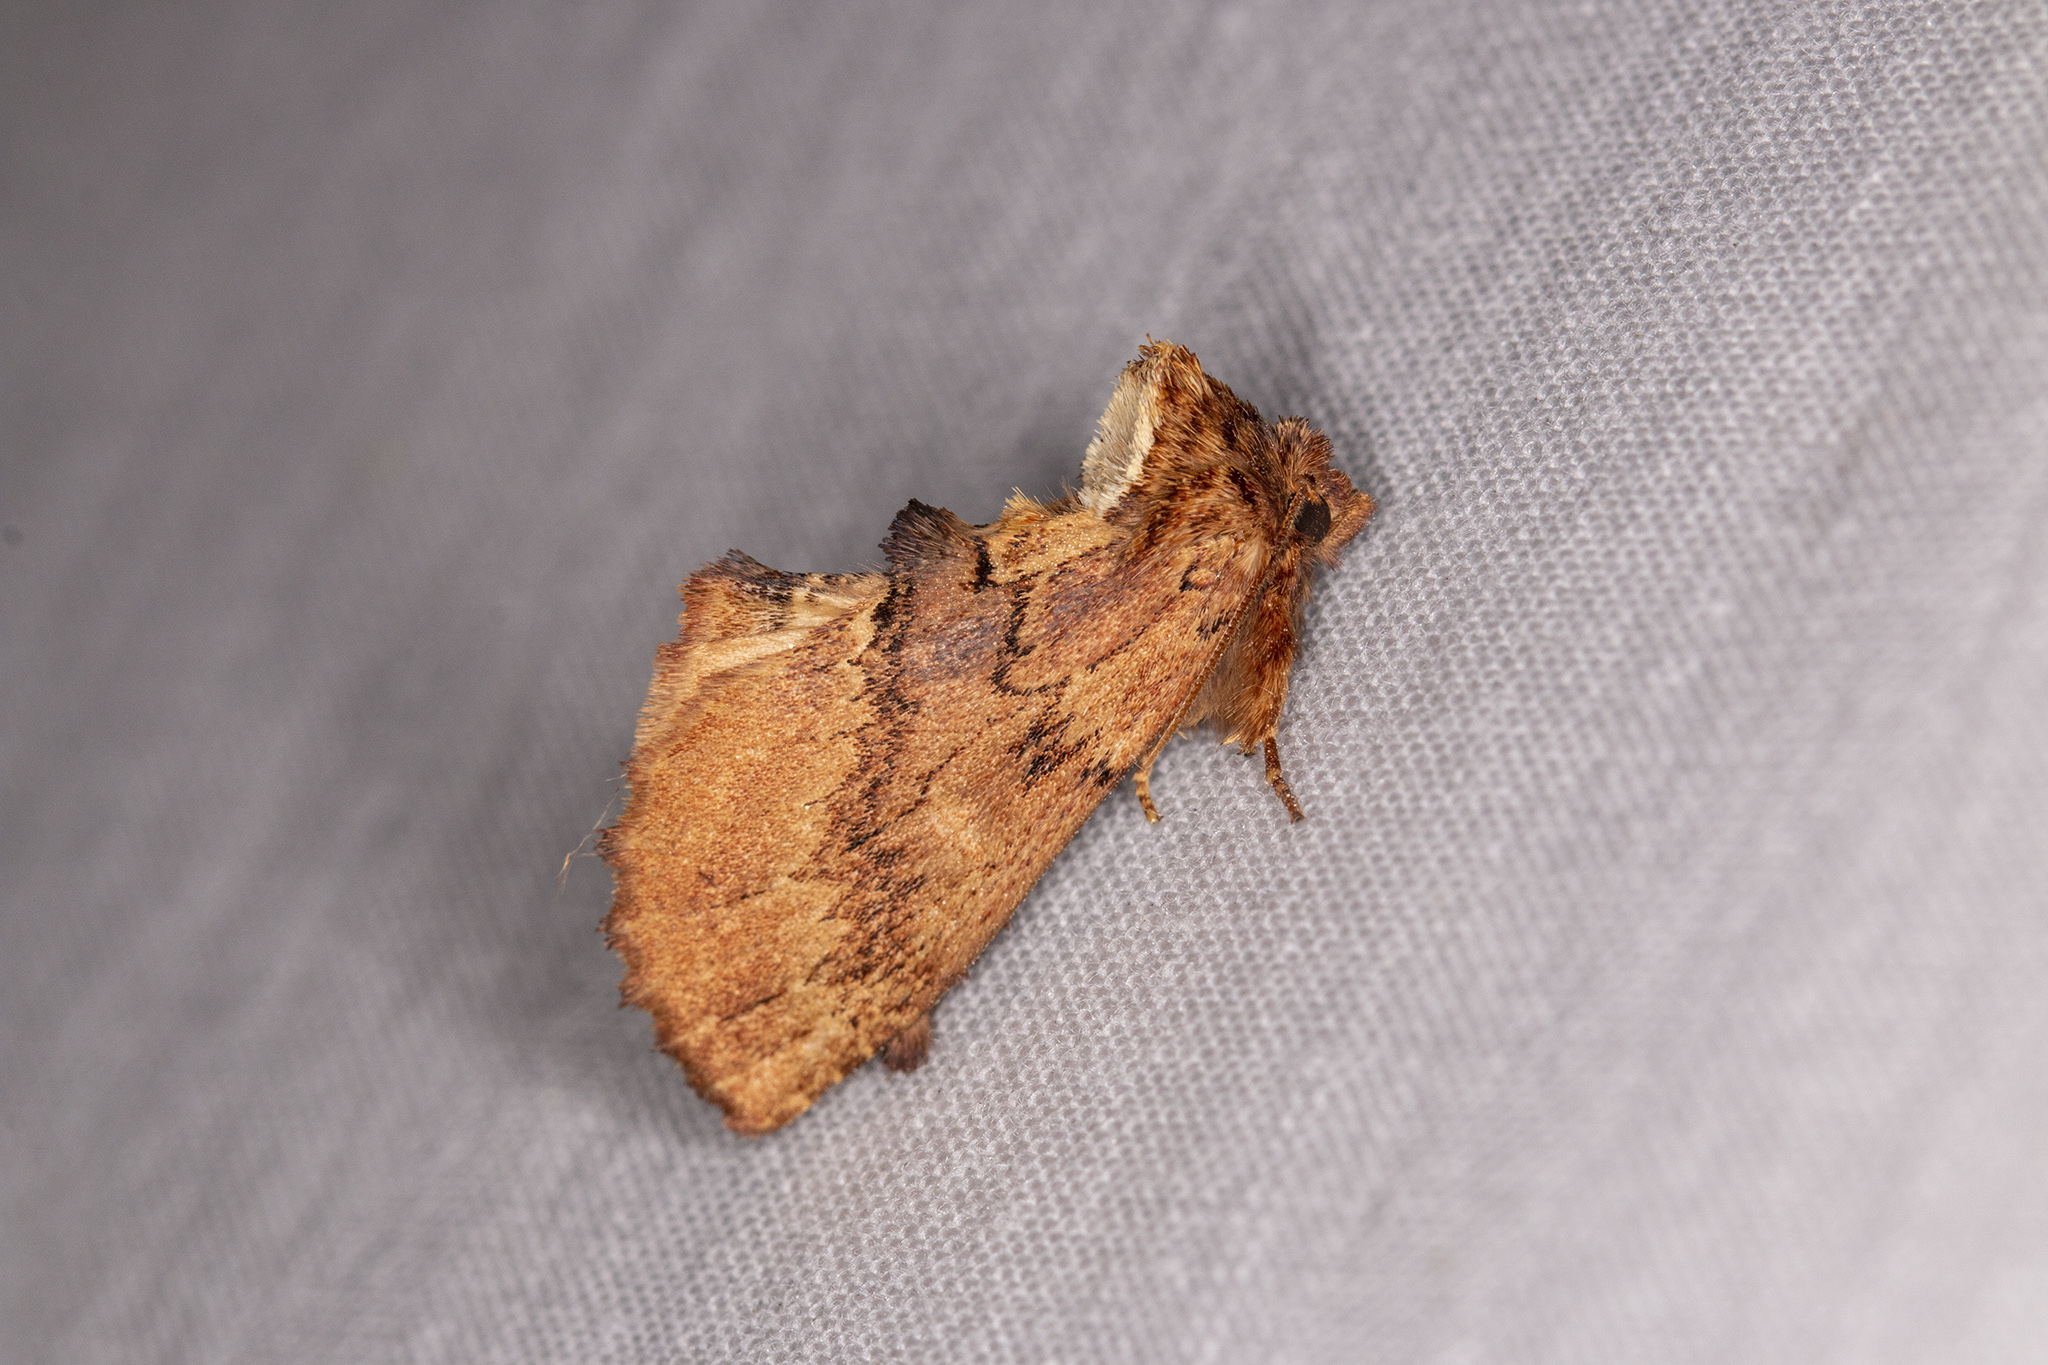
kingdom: Animalia
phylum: Arthropoda
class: Insecta
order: Lepidoptera
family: Notodontidae
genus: Ptilodon
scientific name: Ptilodon capucina
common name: Coxcomb prominent
